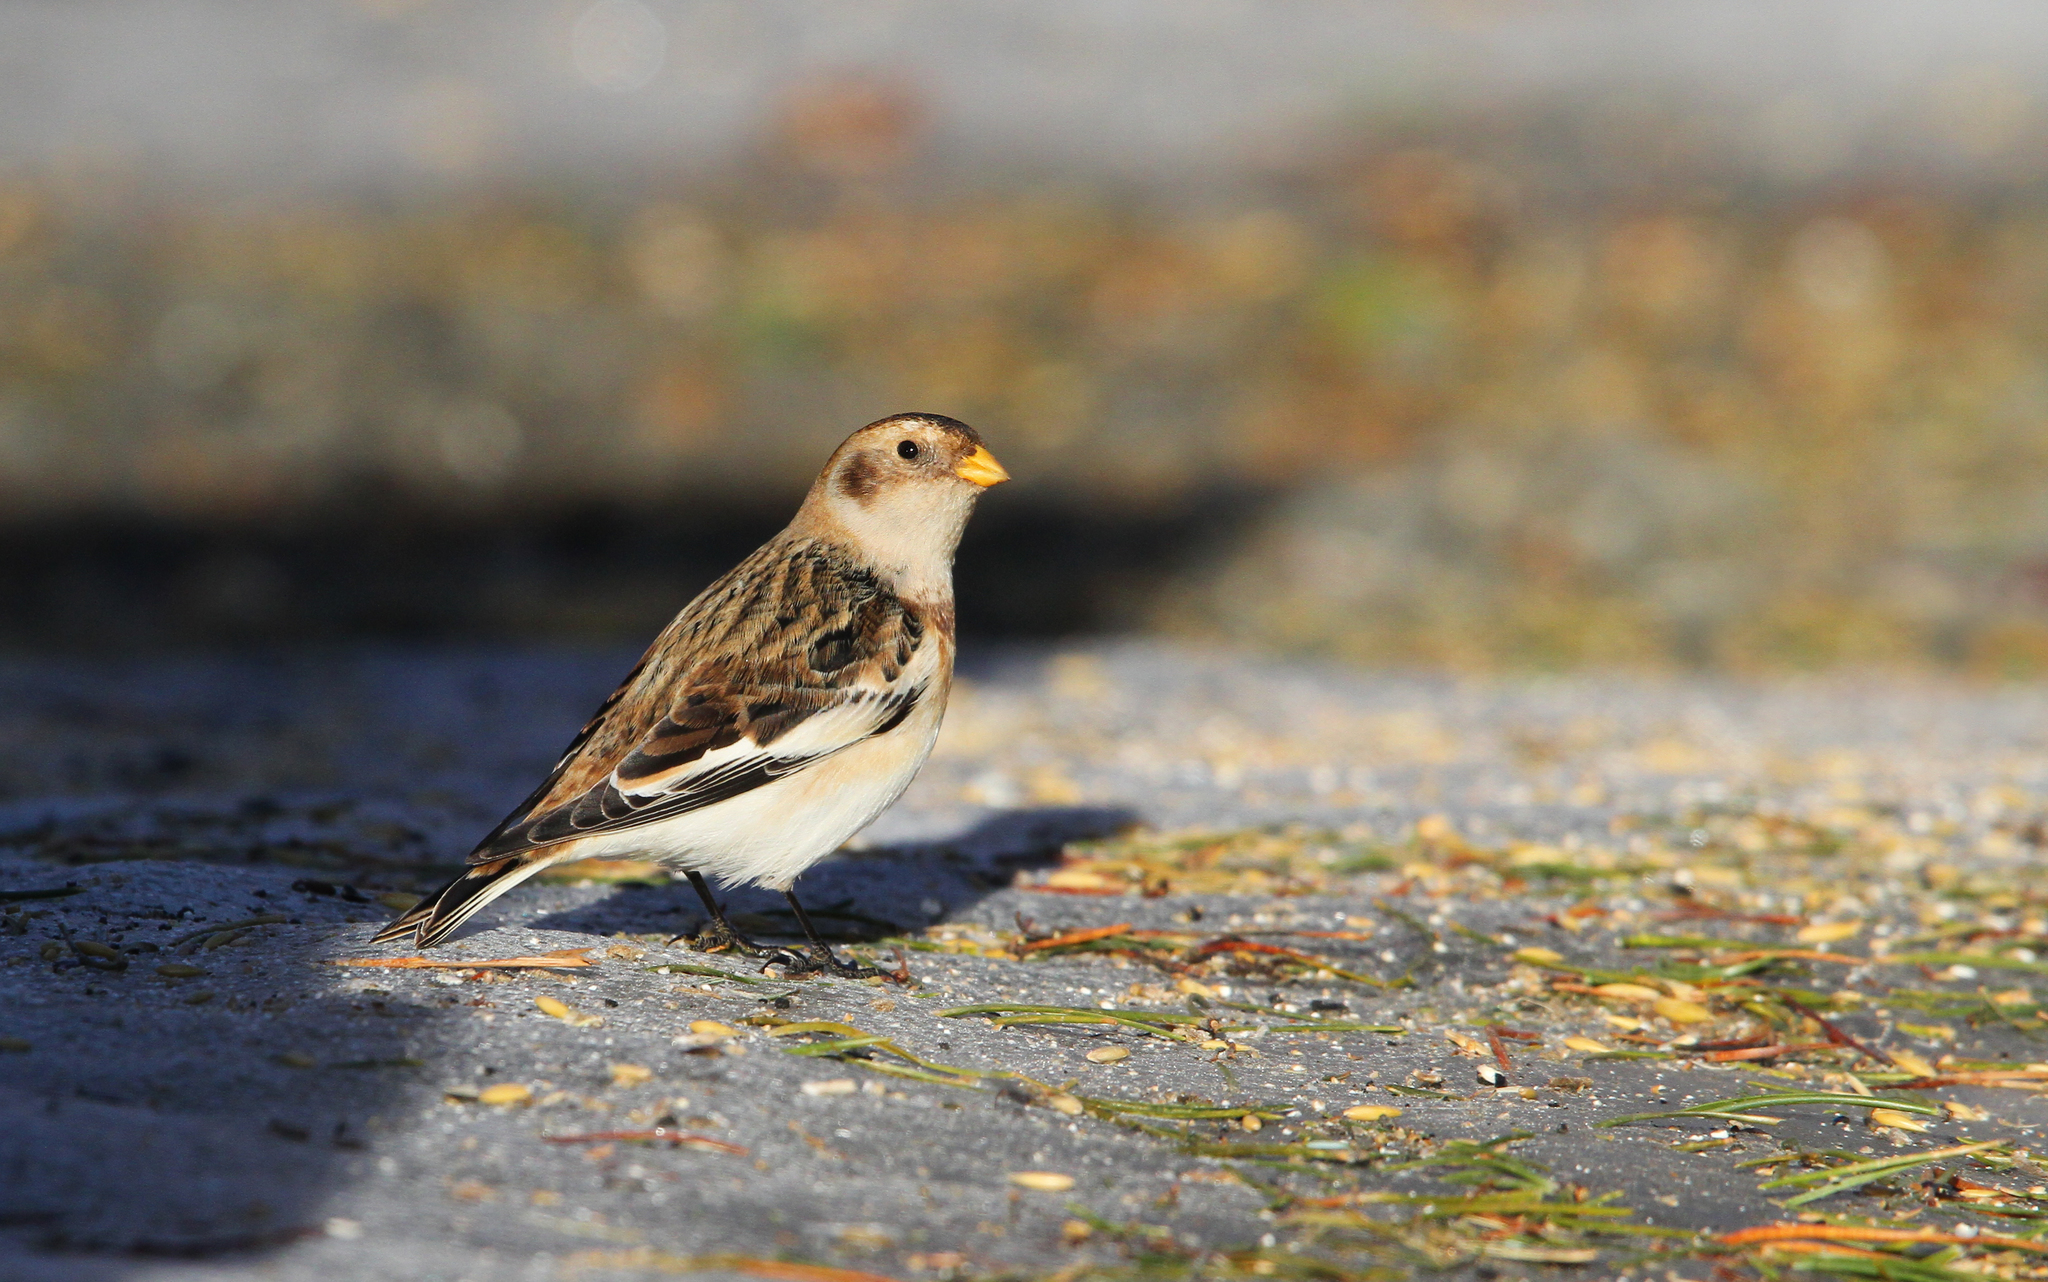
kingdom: Animalia
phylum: Chordata
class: Aves
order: Passeriformes
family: Calcariidae
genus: Plectrophenax
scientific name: Plectrophenax nivalis
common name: Snow bunting
